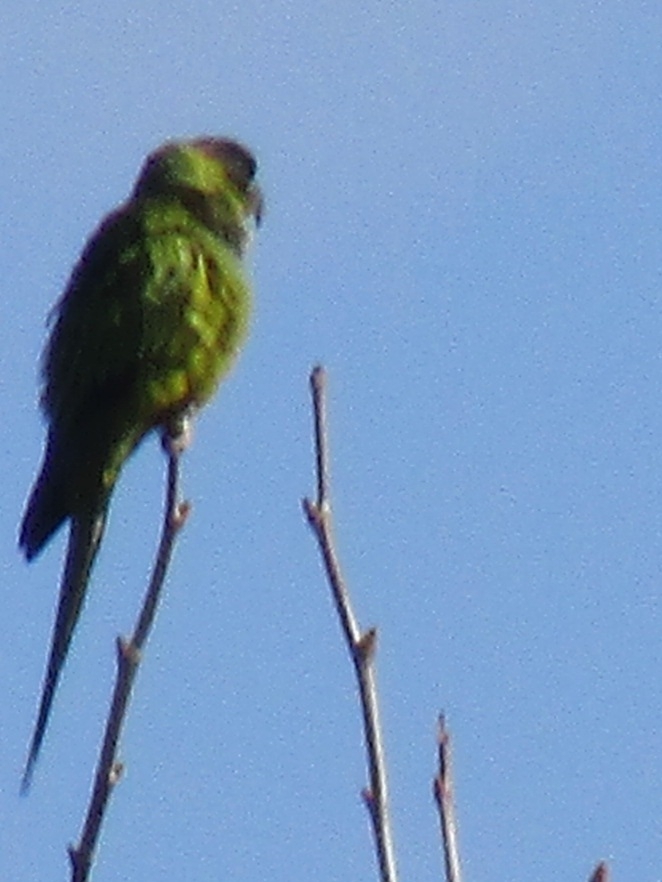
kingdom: Animalia
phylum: Chordata
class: Aves
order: Psittaciformes
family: Psittacidae
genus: Nandayus
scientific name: Nandayus nenday
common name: Nanday parakeet
